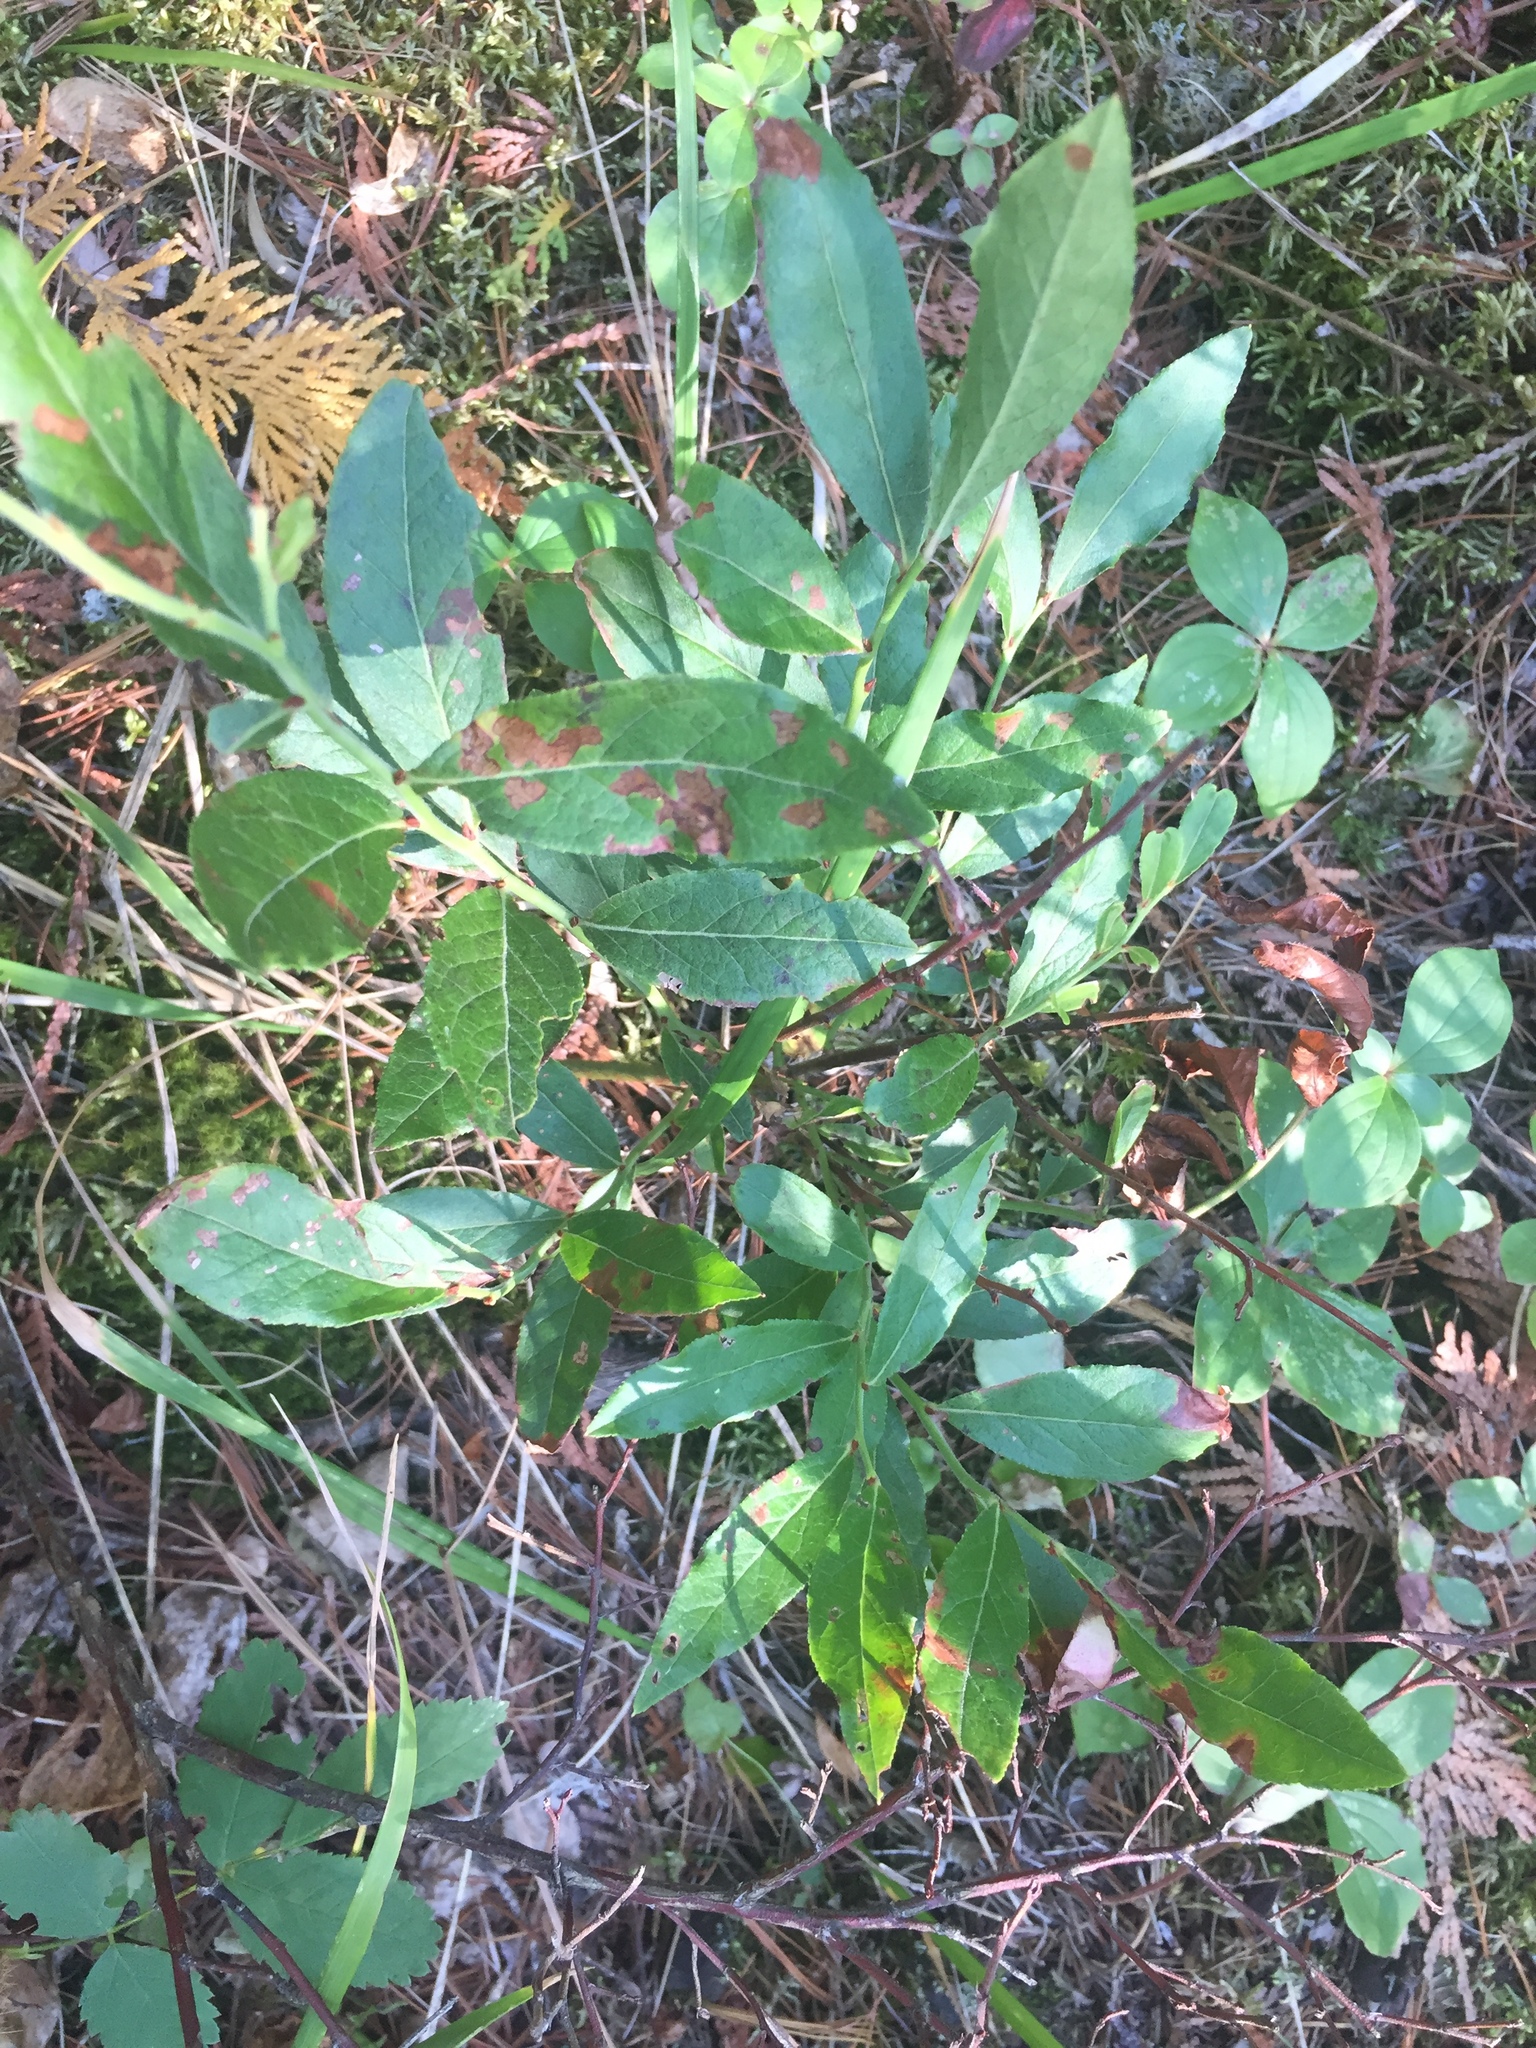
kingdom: Plantae
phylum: Tracheophyta
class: Magnoliopsida
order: Ericales
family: Ericaceae
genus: Vaccinium
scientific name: Vaccinium angustifolium
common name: Early lowbush blueberry
